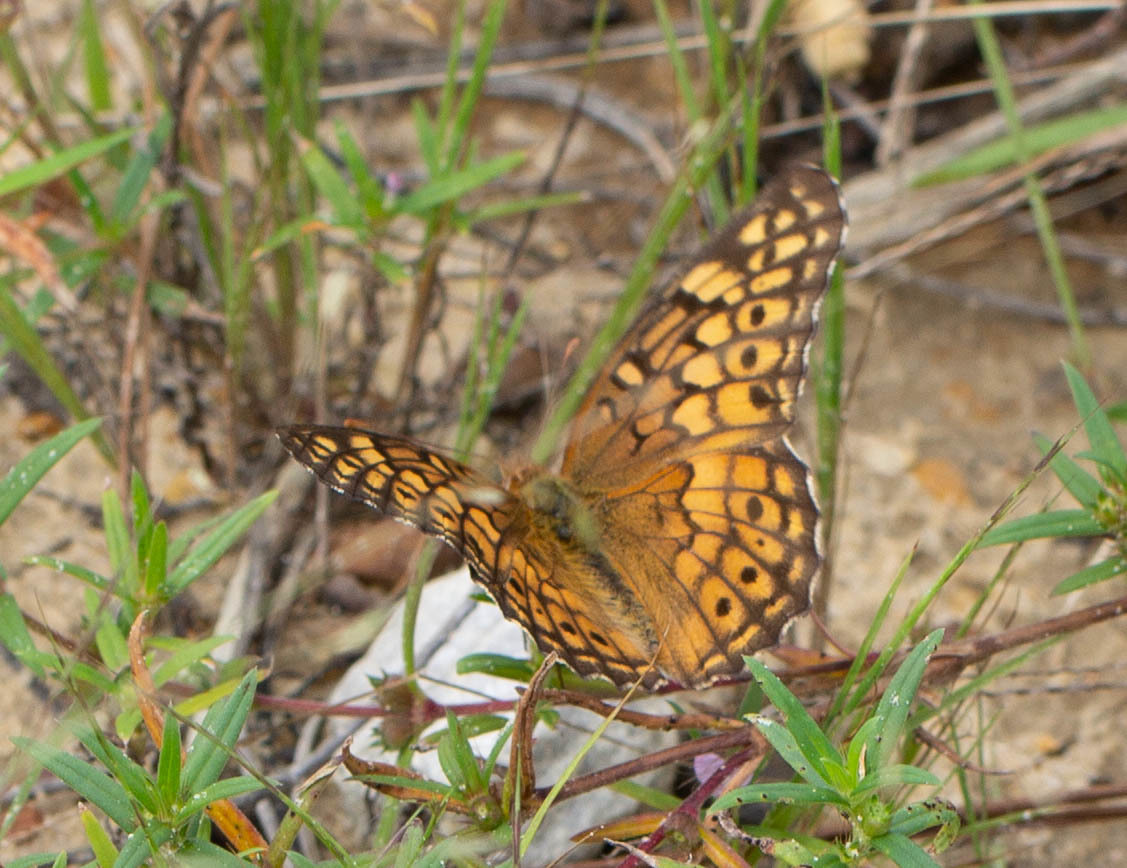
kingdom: Animalia
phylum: Arthropoda
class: Insecta
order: Lepidoptera
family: Nymphalidae
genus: Euptoieta
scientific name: Euptoieta claudia
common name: Variegated fritillary
